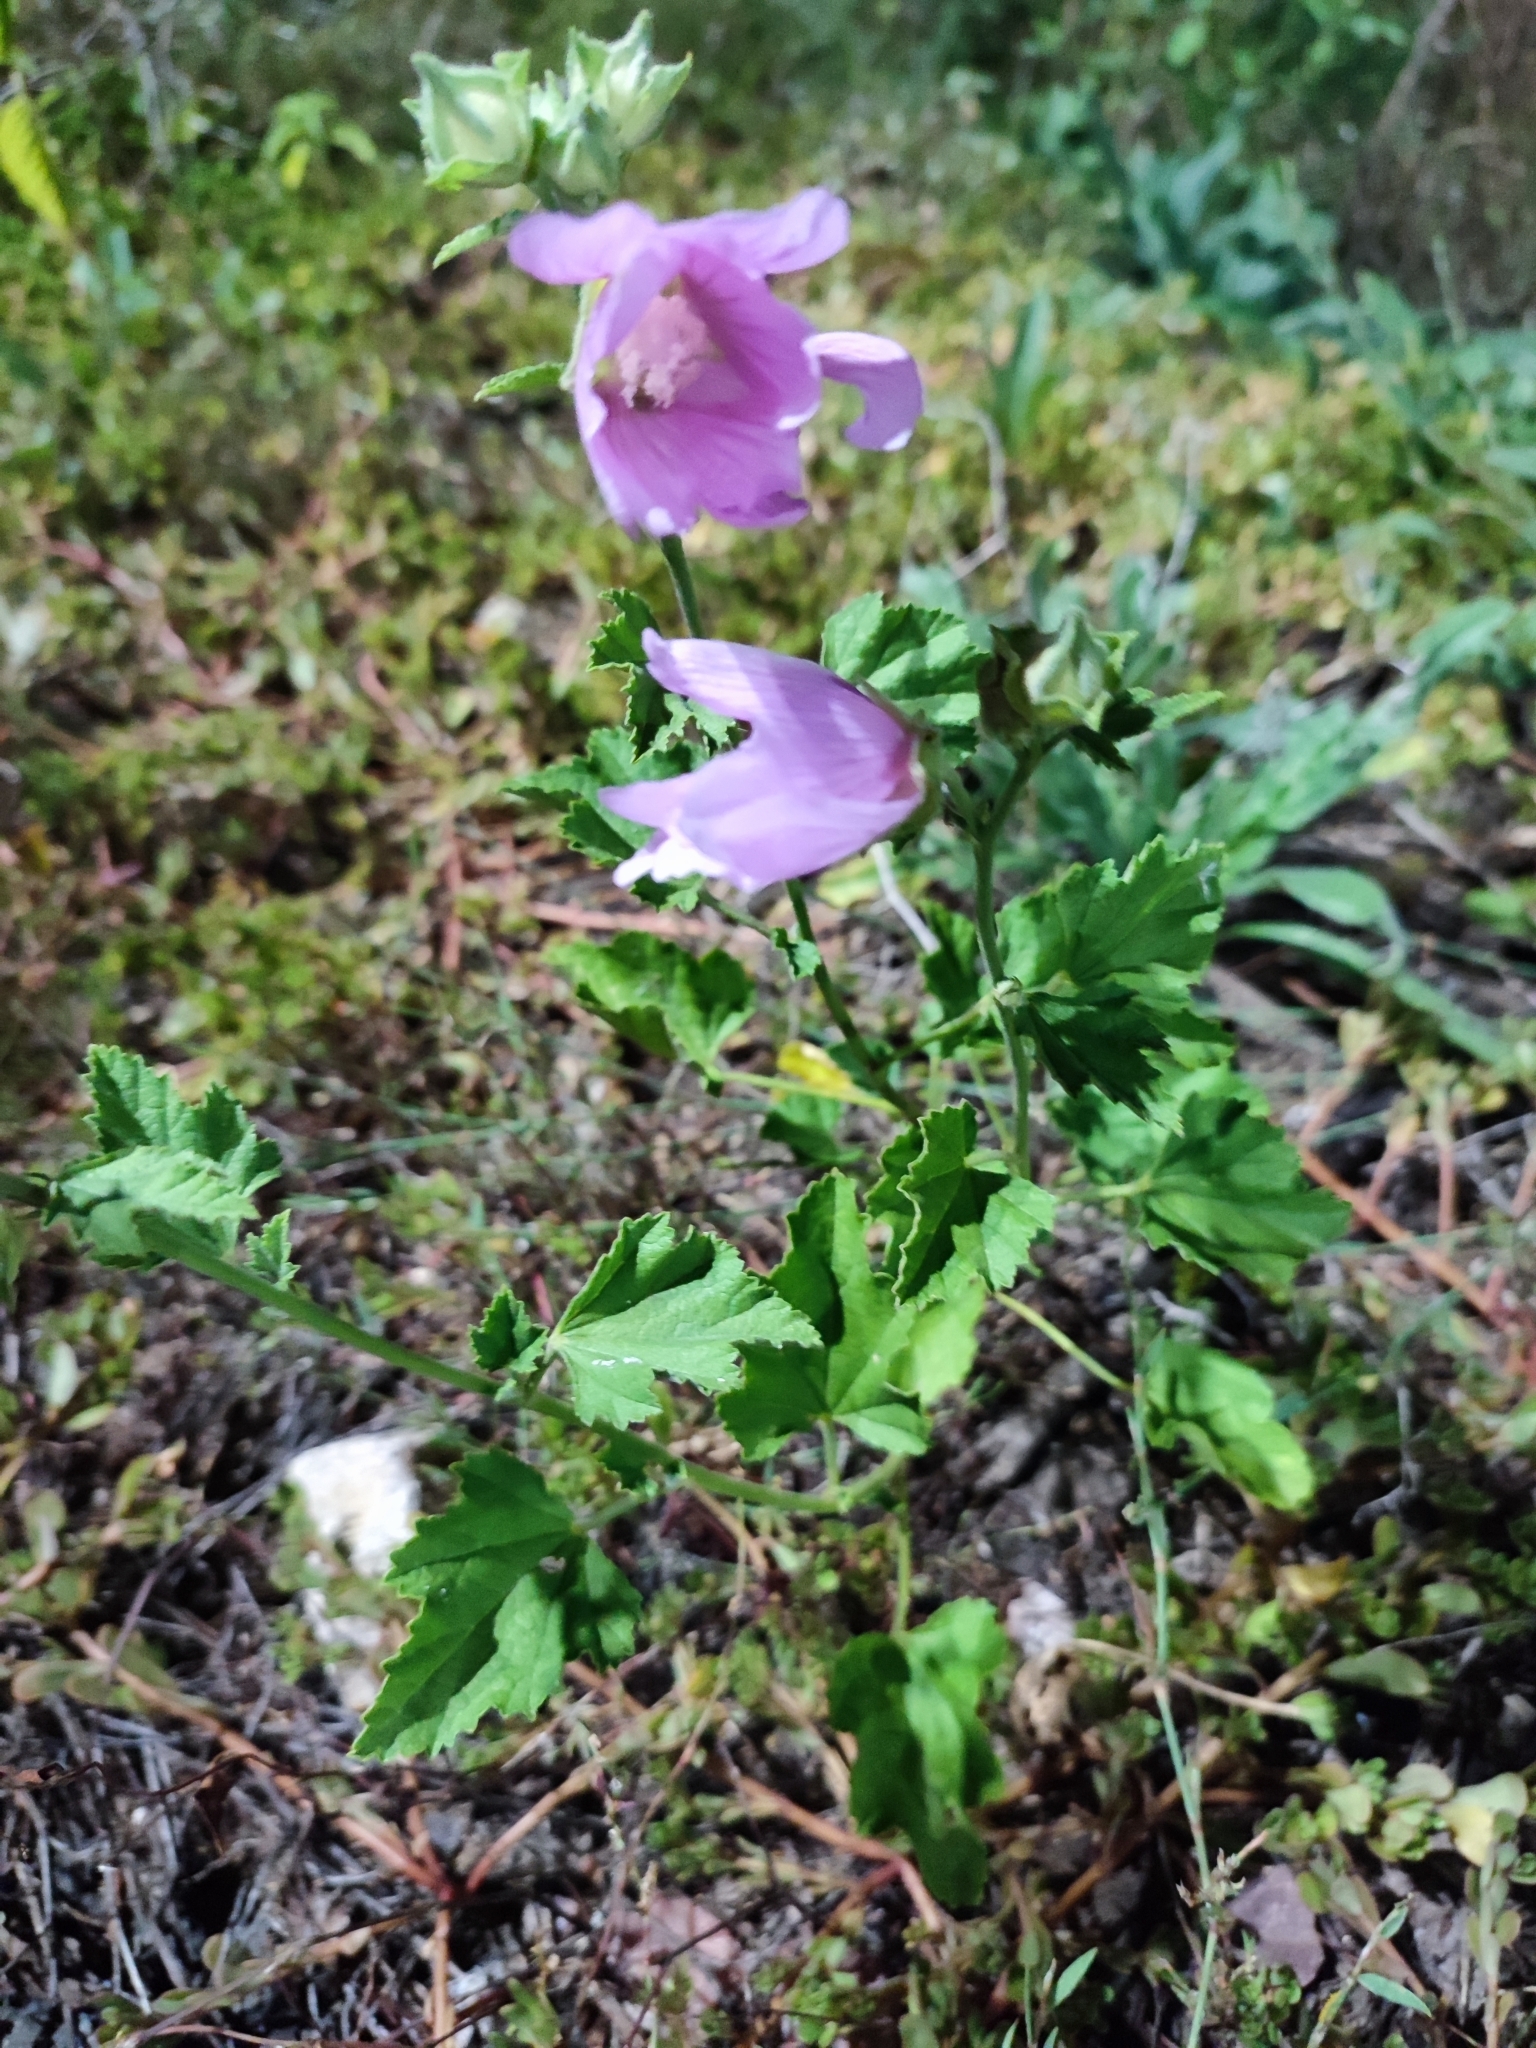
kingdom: Plantae
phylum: Tracheophyta
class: Magnoliopsida
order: Malvales
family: Malvaceae
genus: Malva
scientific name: Malva thuringiaca
